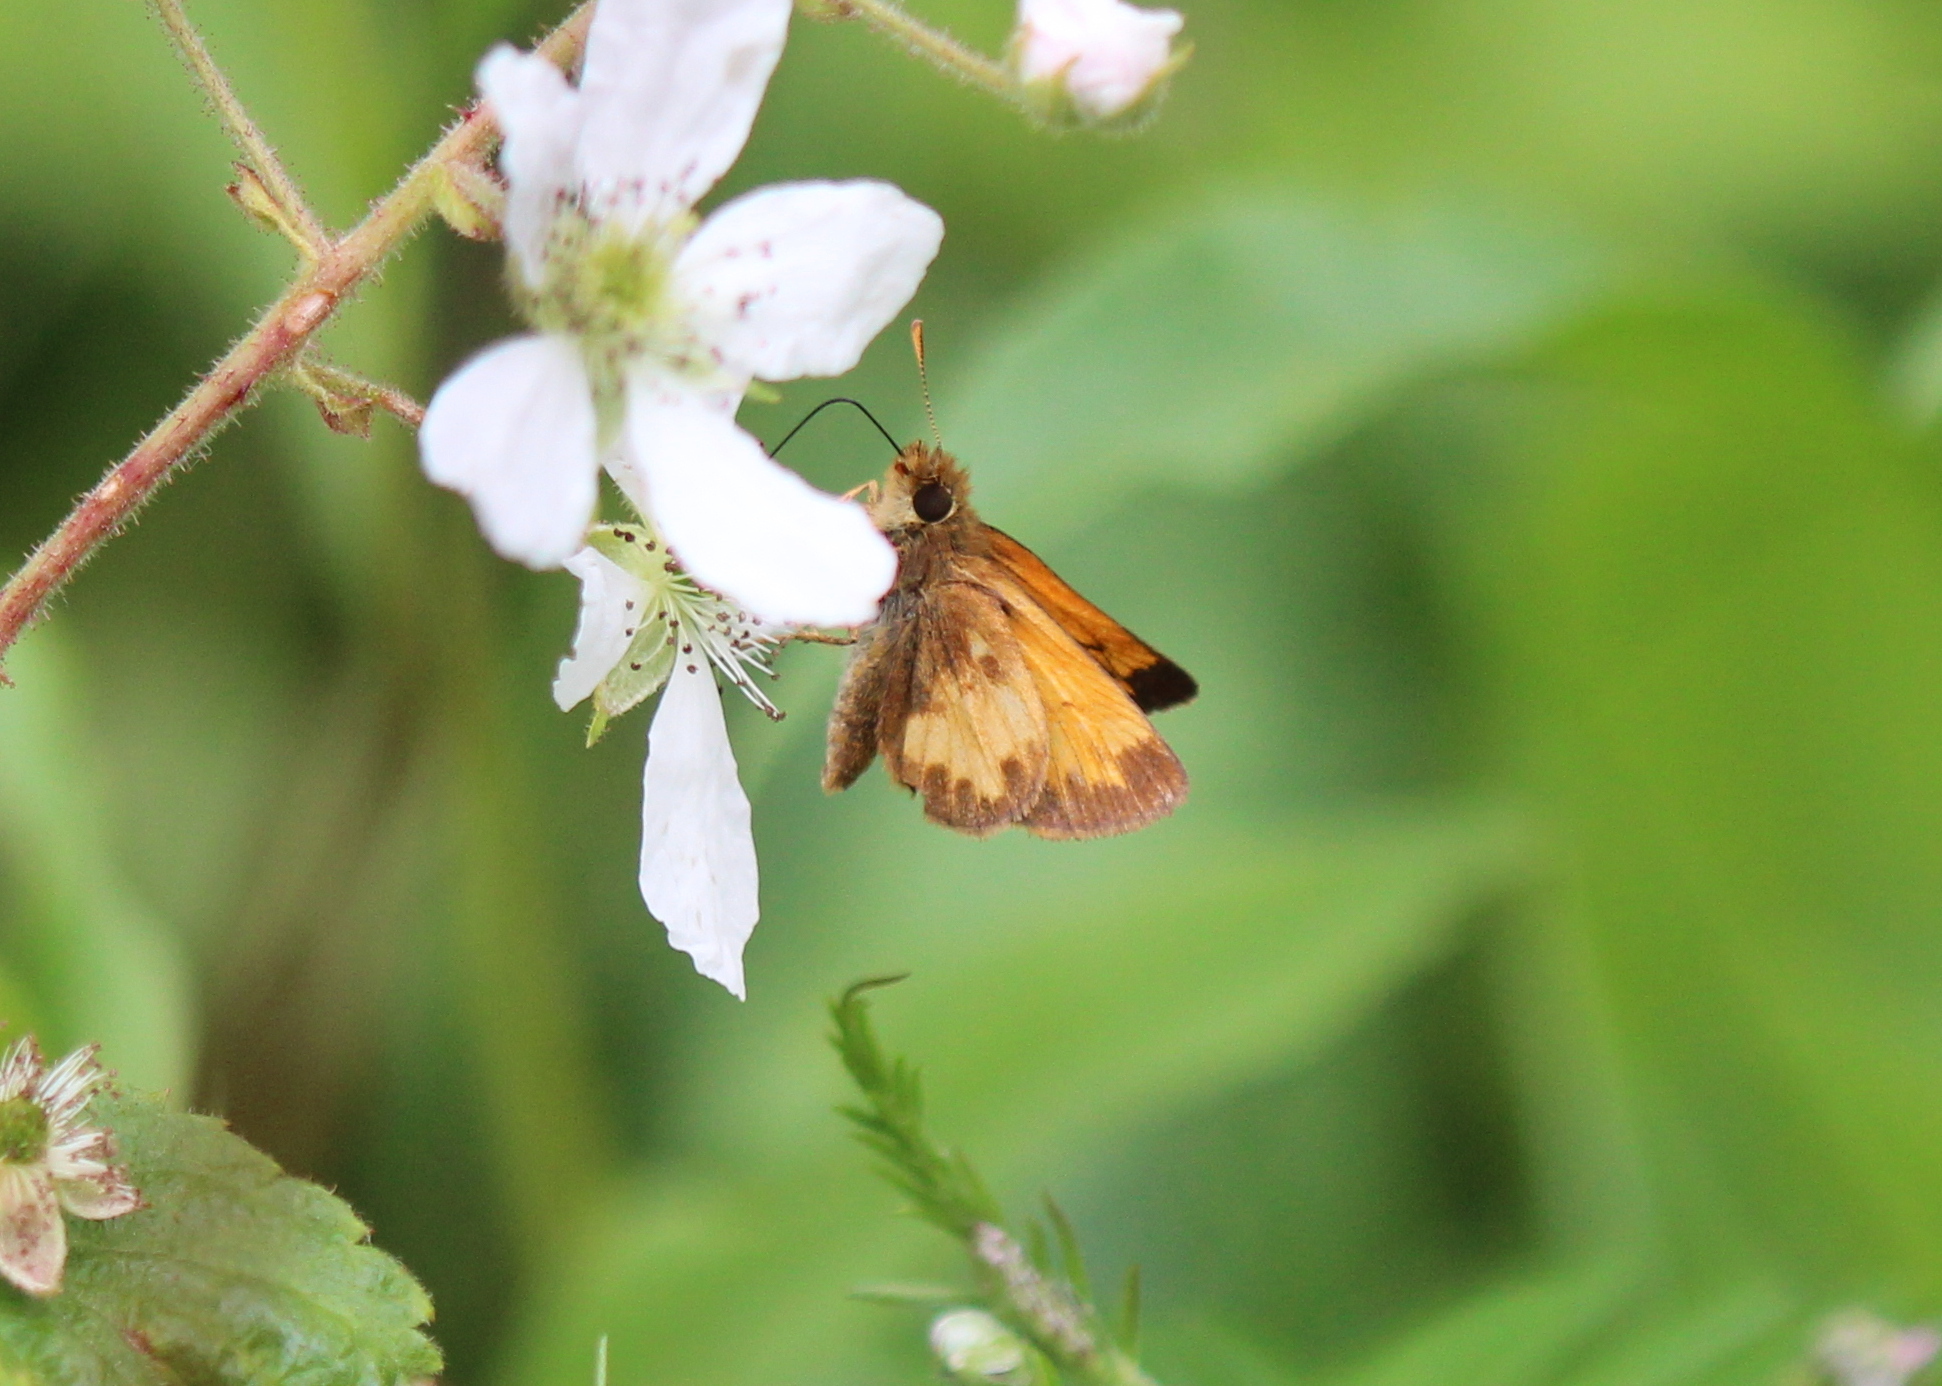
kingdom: Animalia
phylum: Arthropoda
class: Insecta
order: Lepidoptera
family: Hesperiidae
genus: Lon
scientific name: Lon hobomok
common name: Hobomok skipper
